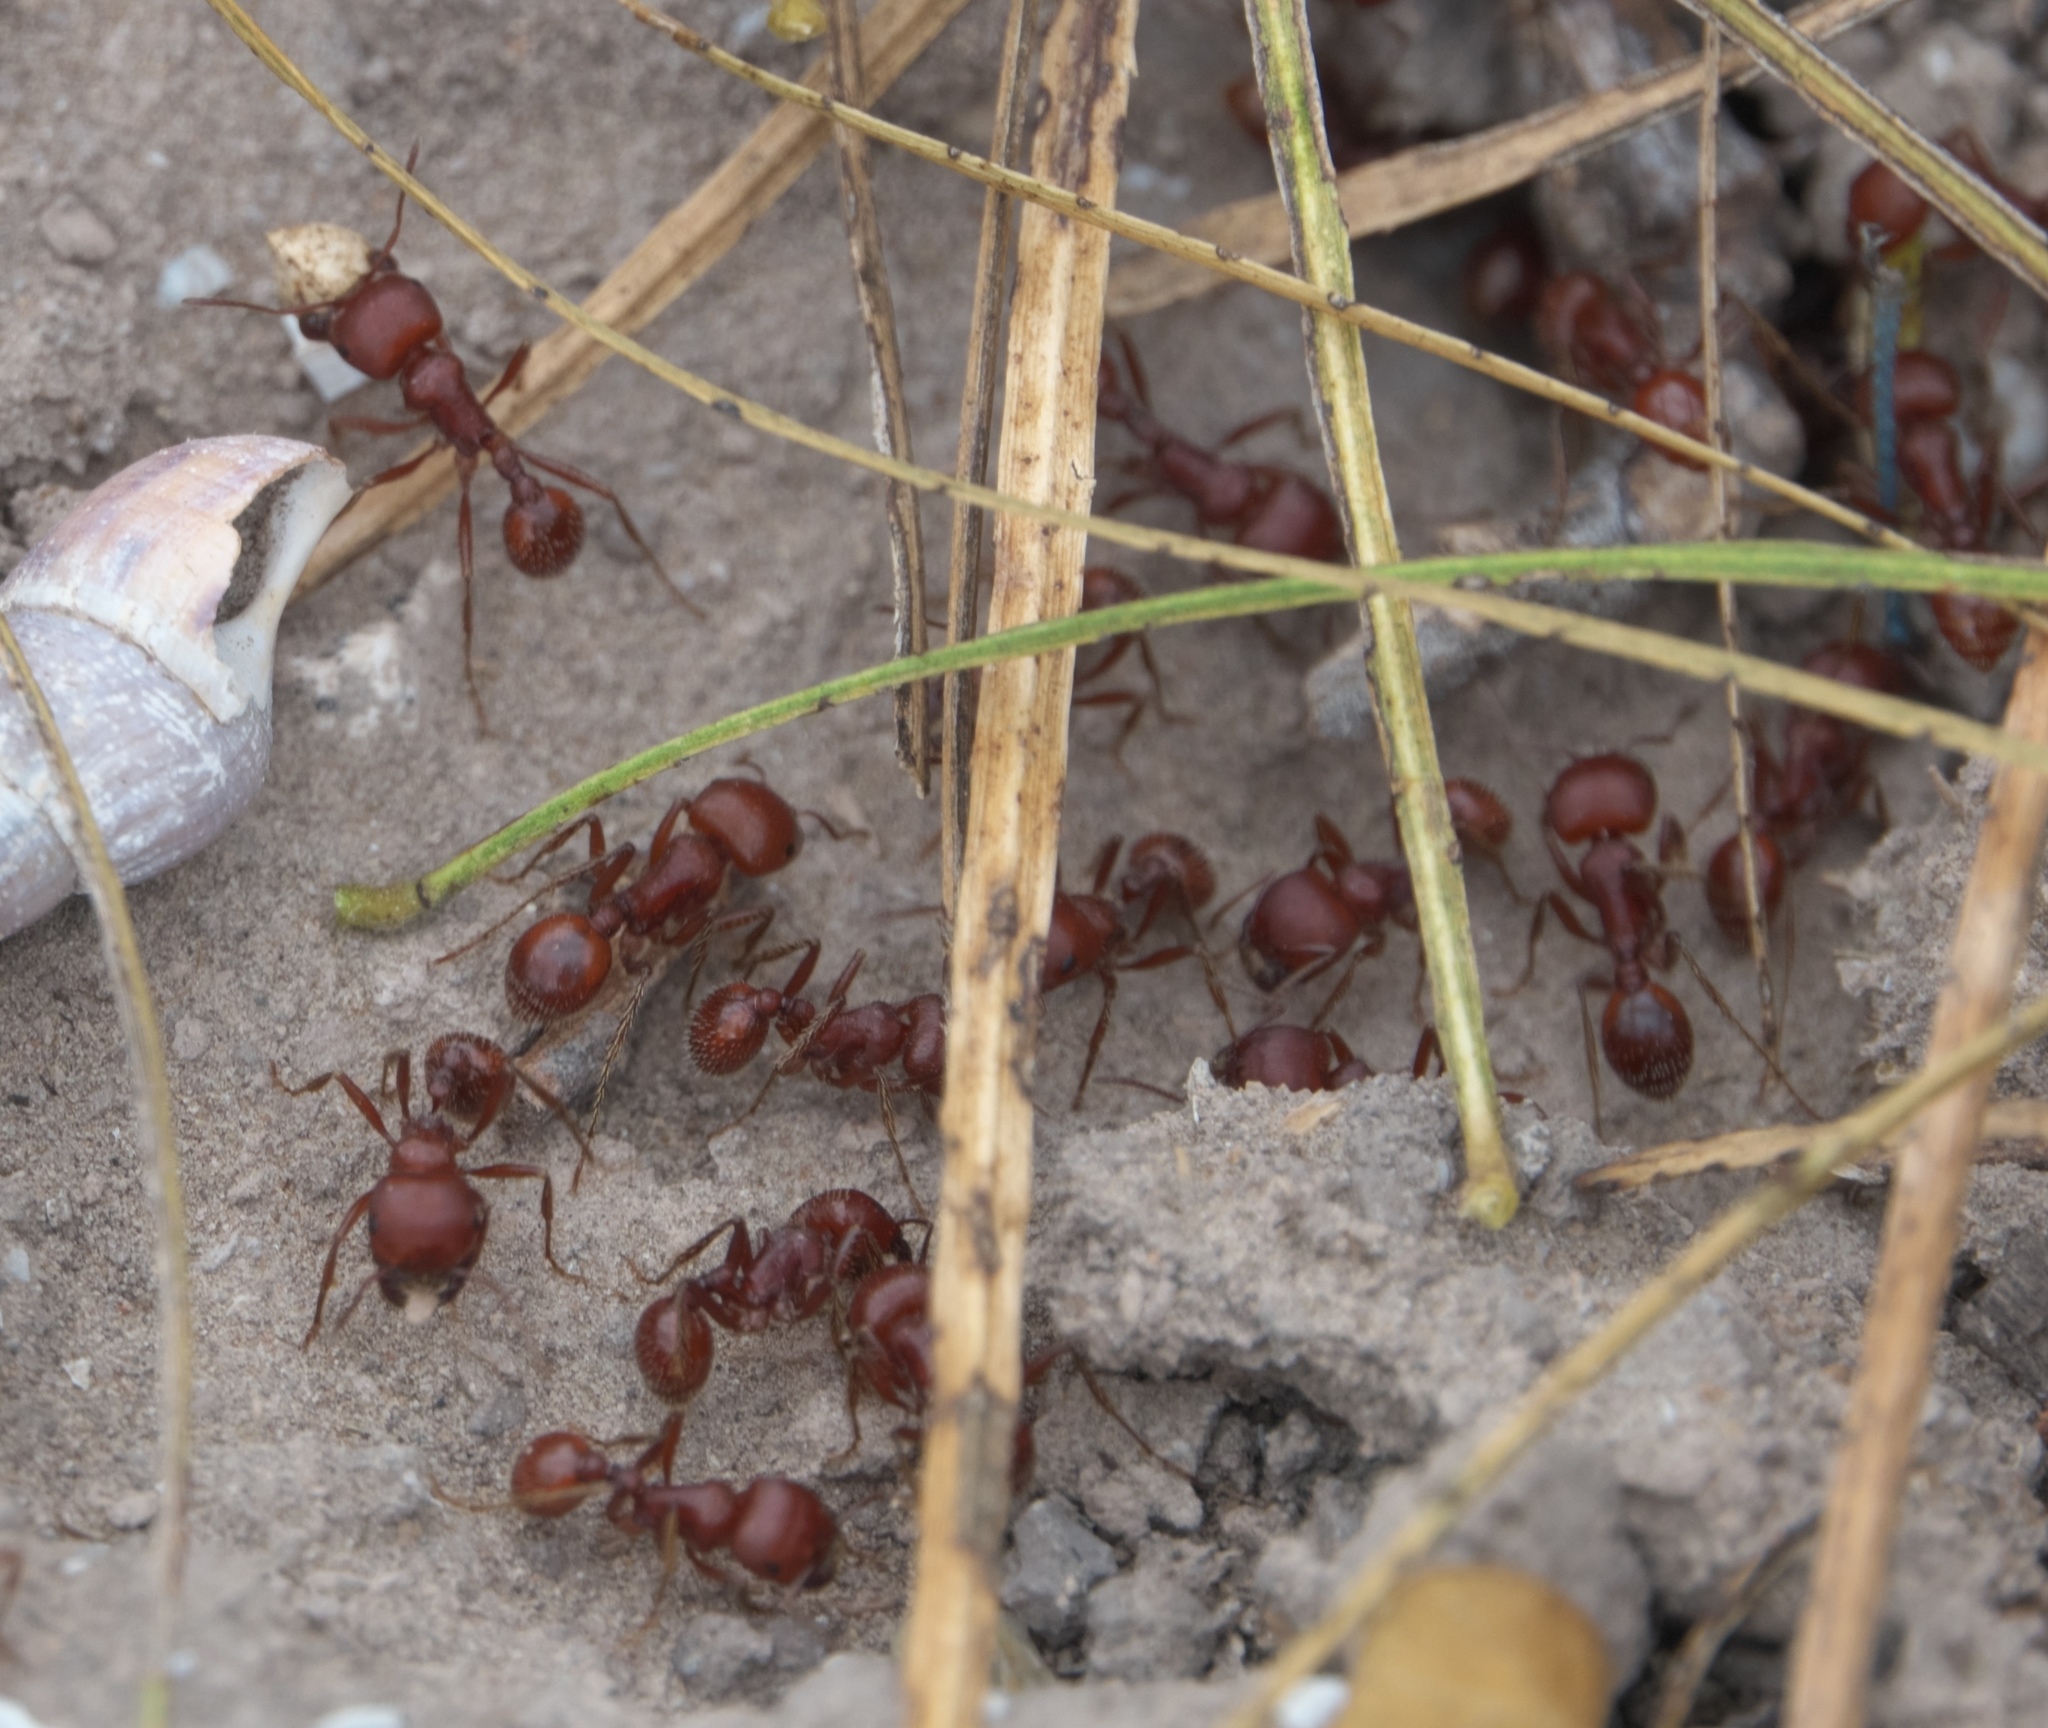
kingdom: Animalia
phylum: Arthropoda
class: Insecta
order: Hymenoptera
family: Formicidae
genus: Pogonomyrmex
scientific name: Pogonomyrmex barbatus
